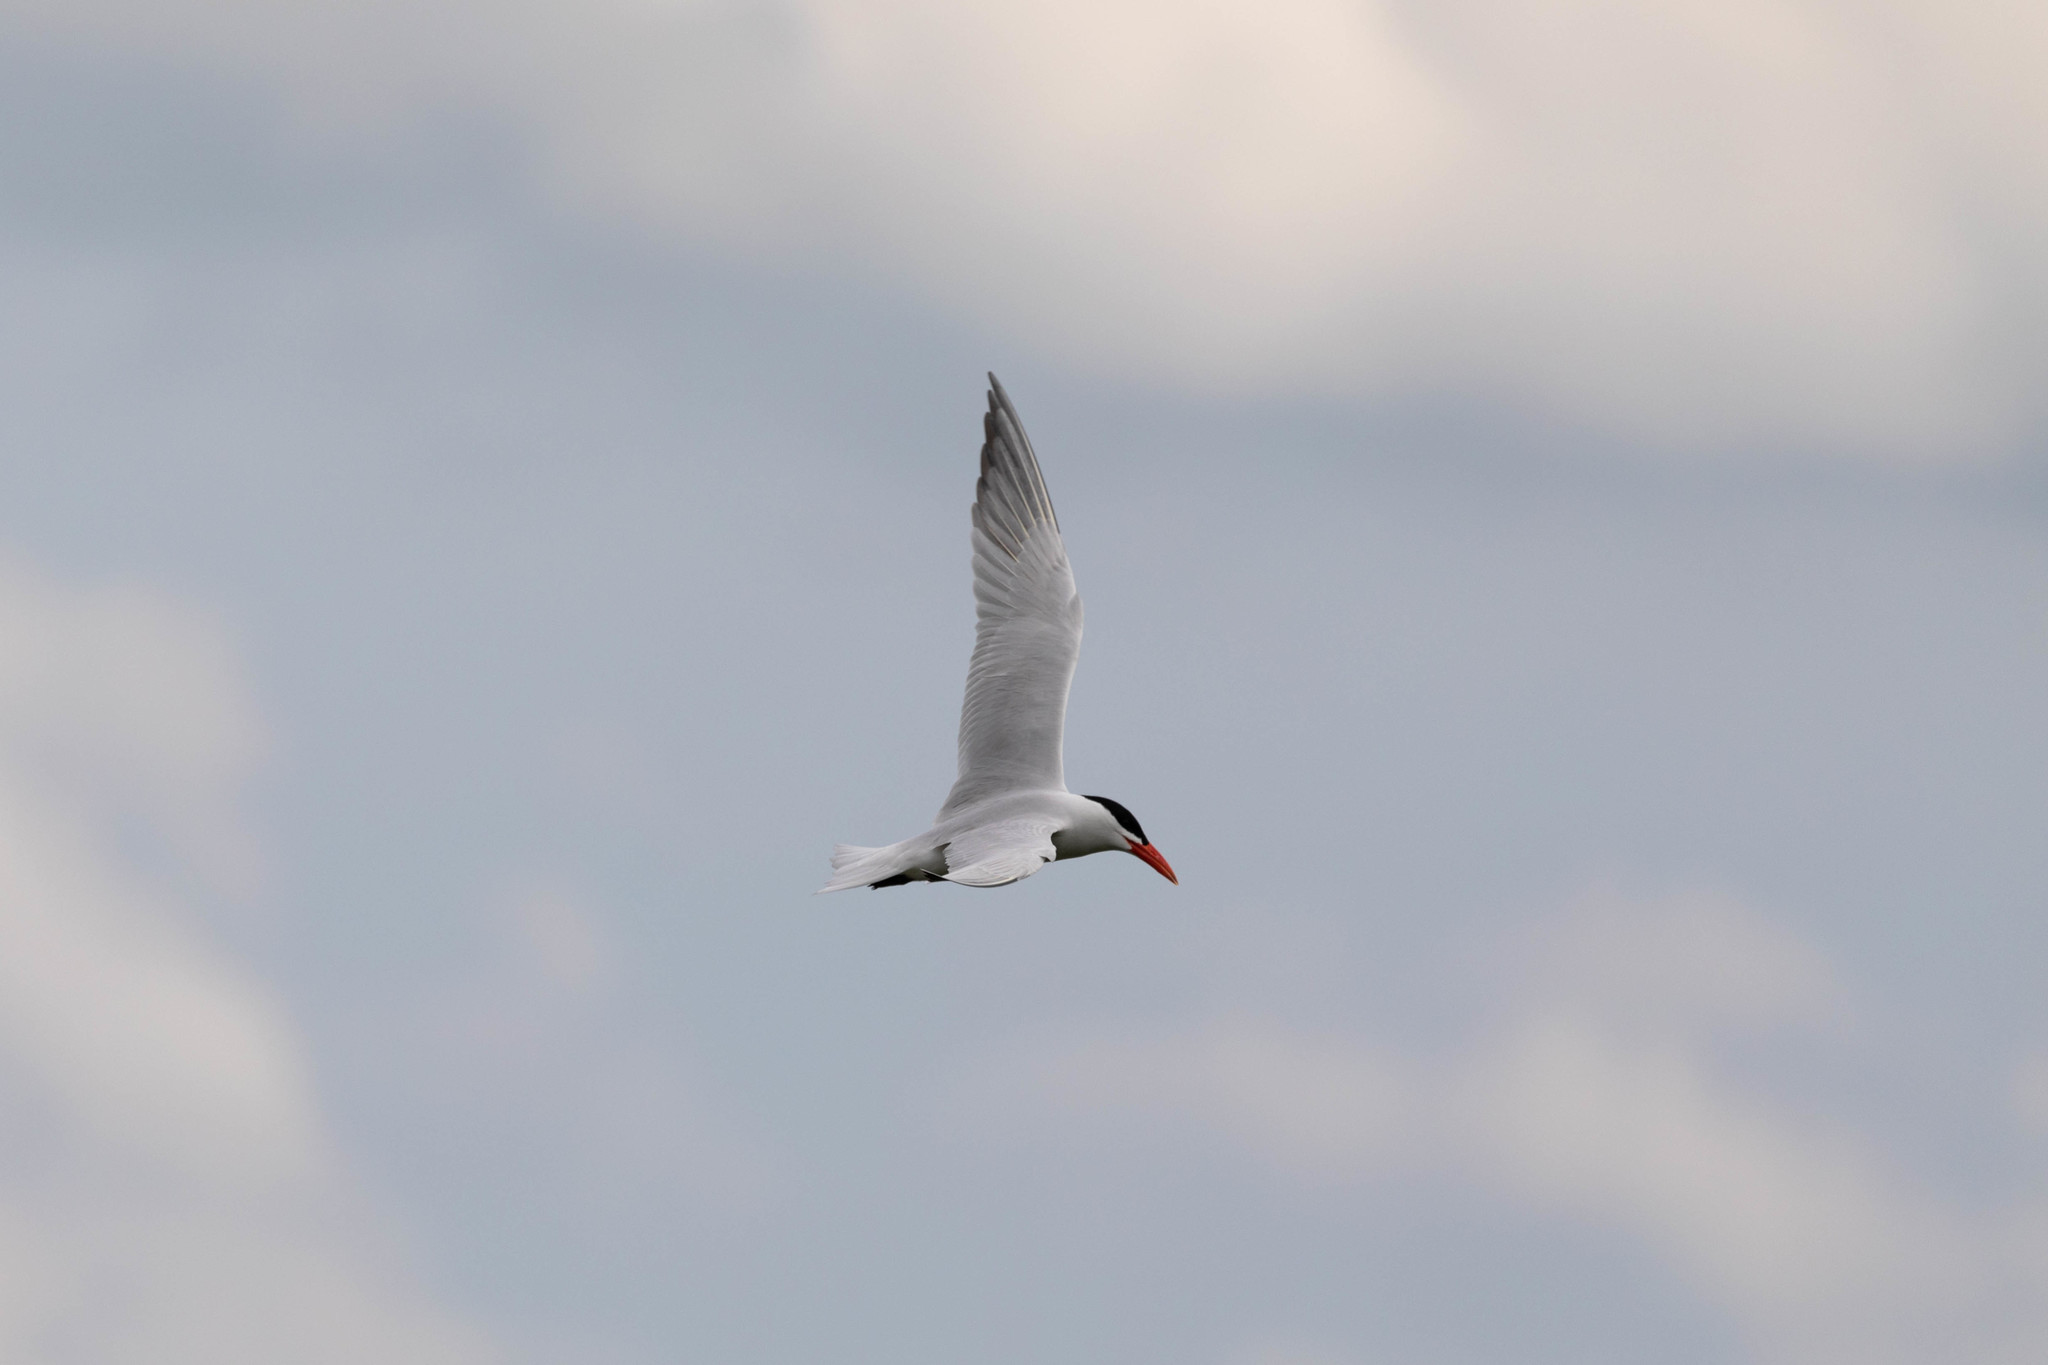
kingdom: Animalia
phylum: Chordata
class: Aves
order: Charadriiformes
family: Laridae
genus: Hydroprogne
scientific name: Hydroprogne caspia
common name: Caspian tern
